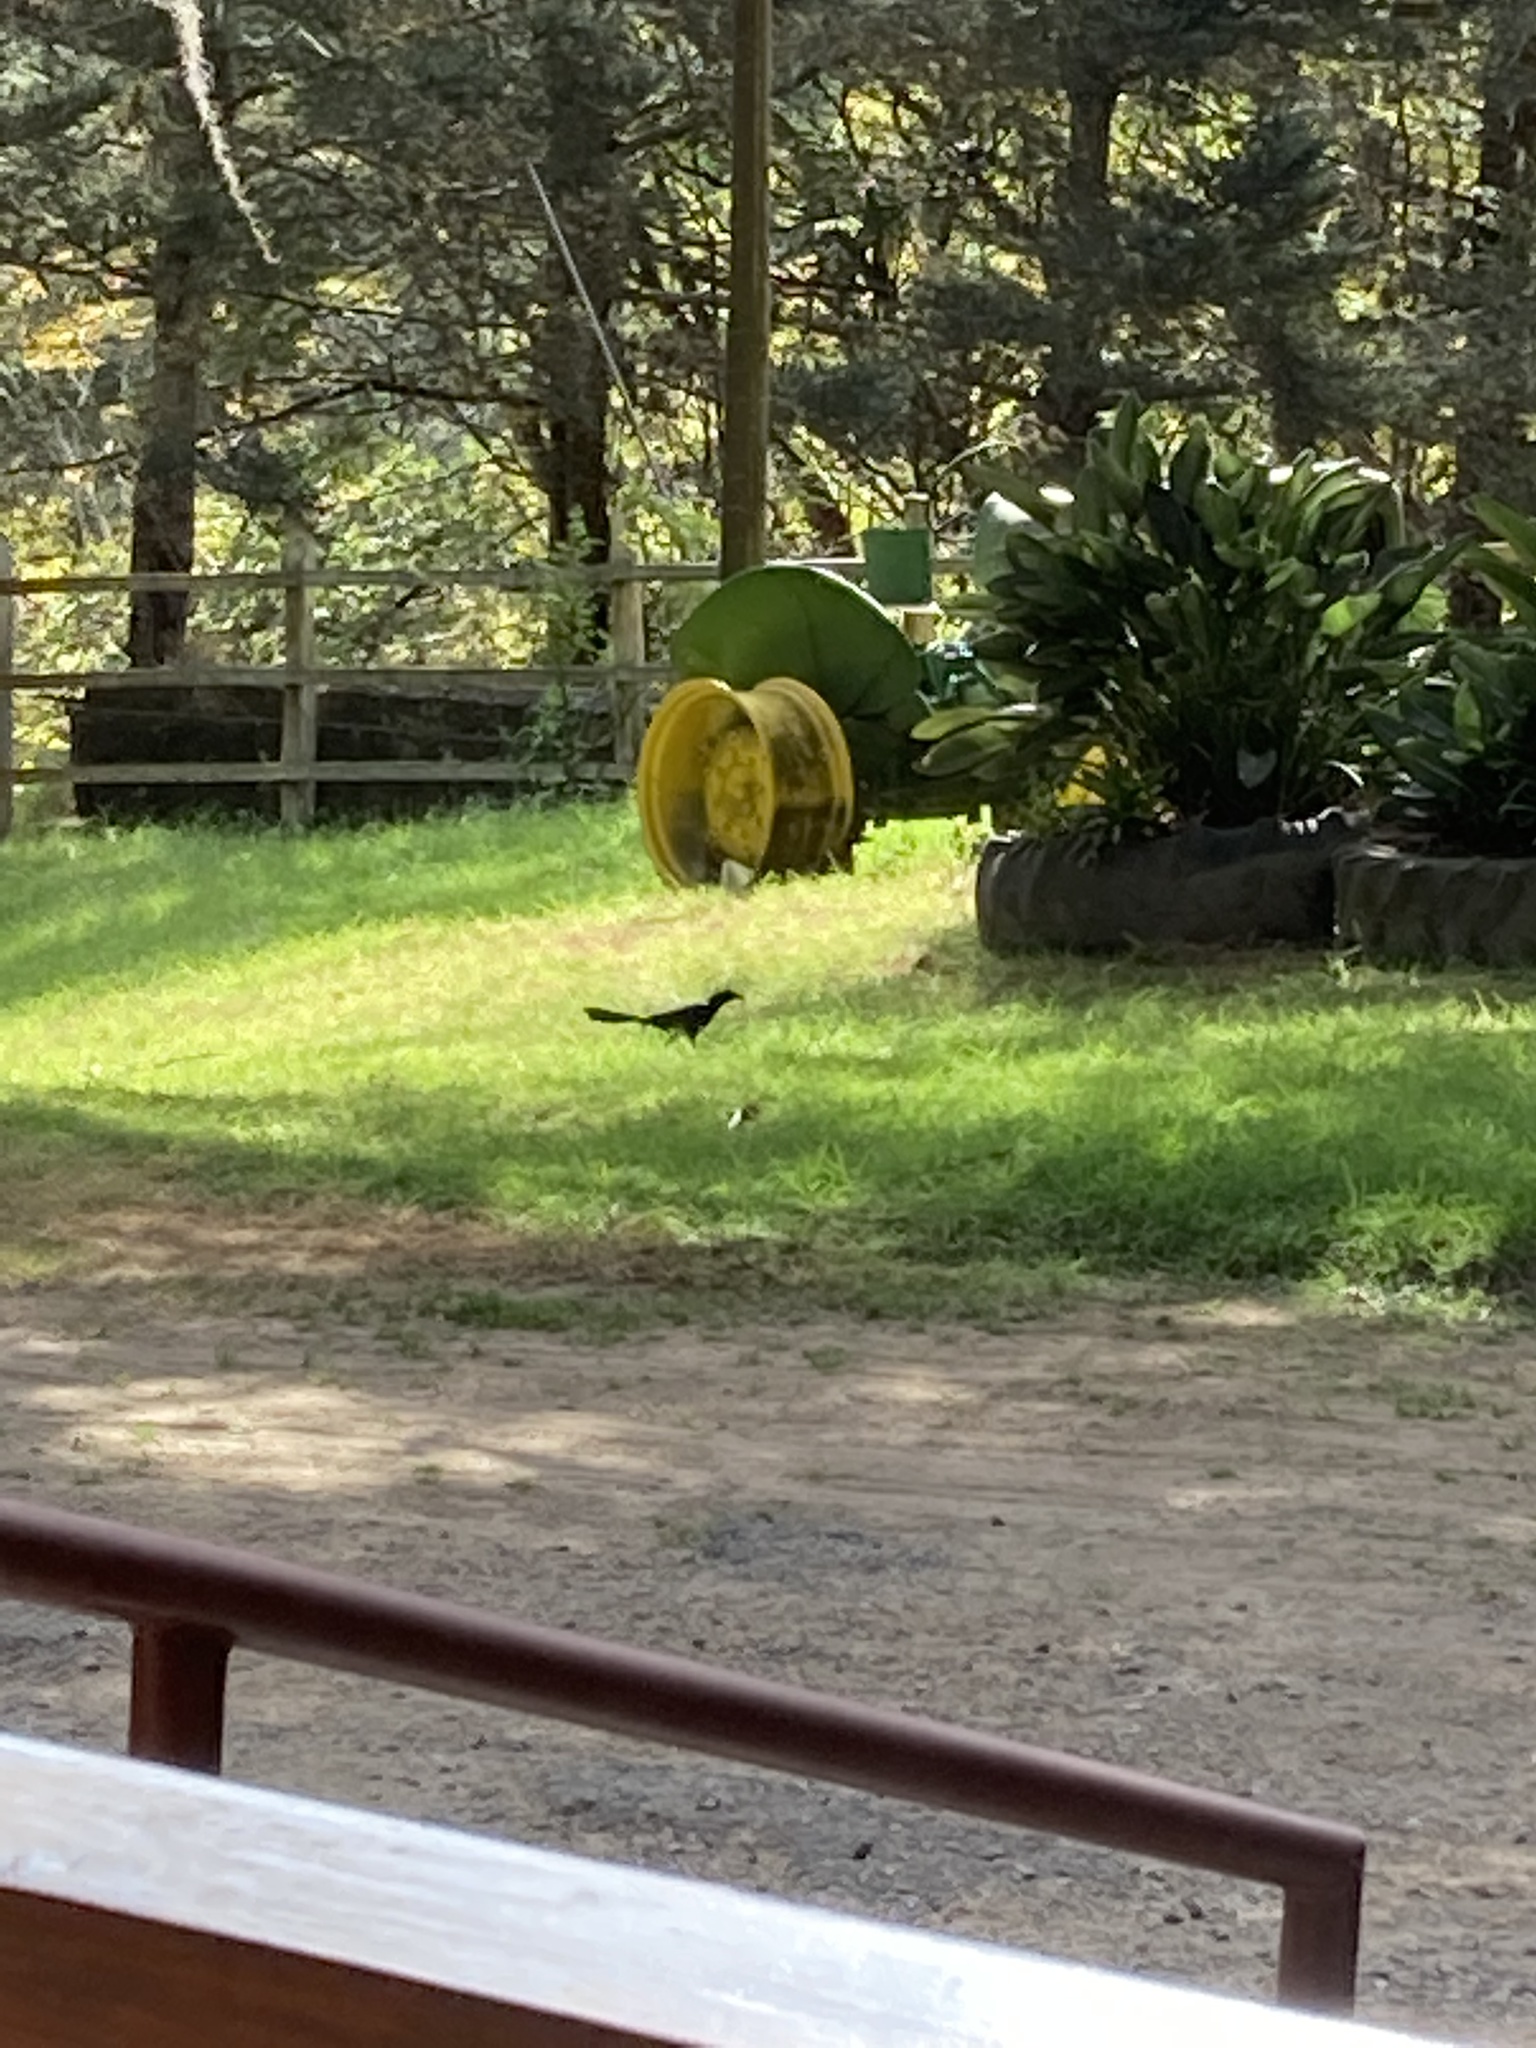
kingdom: Animalia
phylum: Chordata
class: Aves
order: Passeriformes
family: Icteridae
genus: Quiscalus
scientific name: Quiscalus mexicanus
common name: Great-tailed grackle
